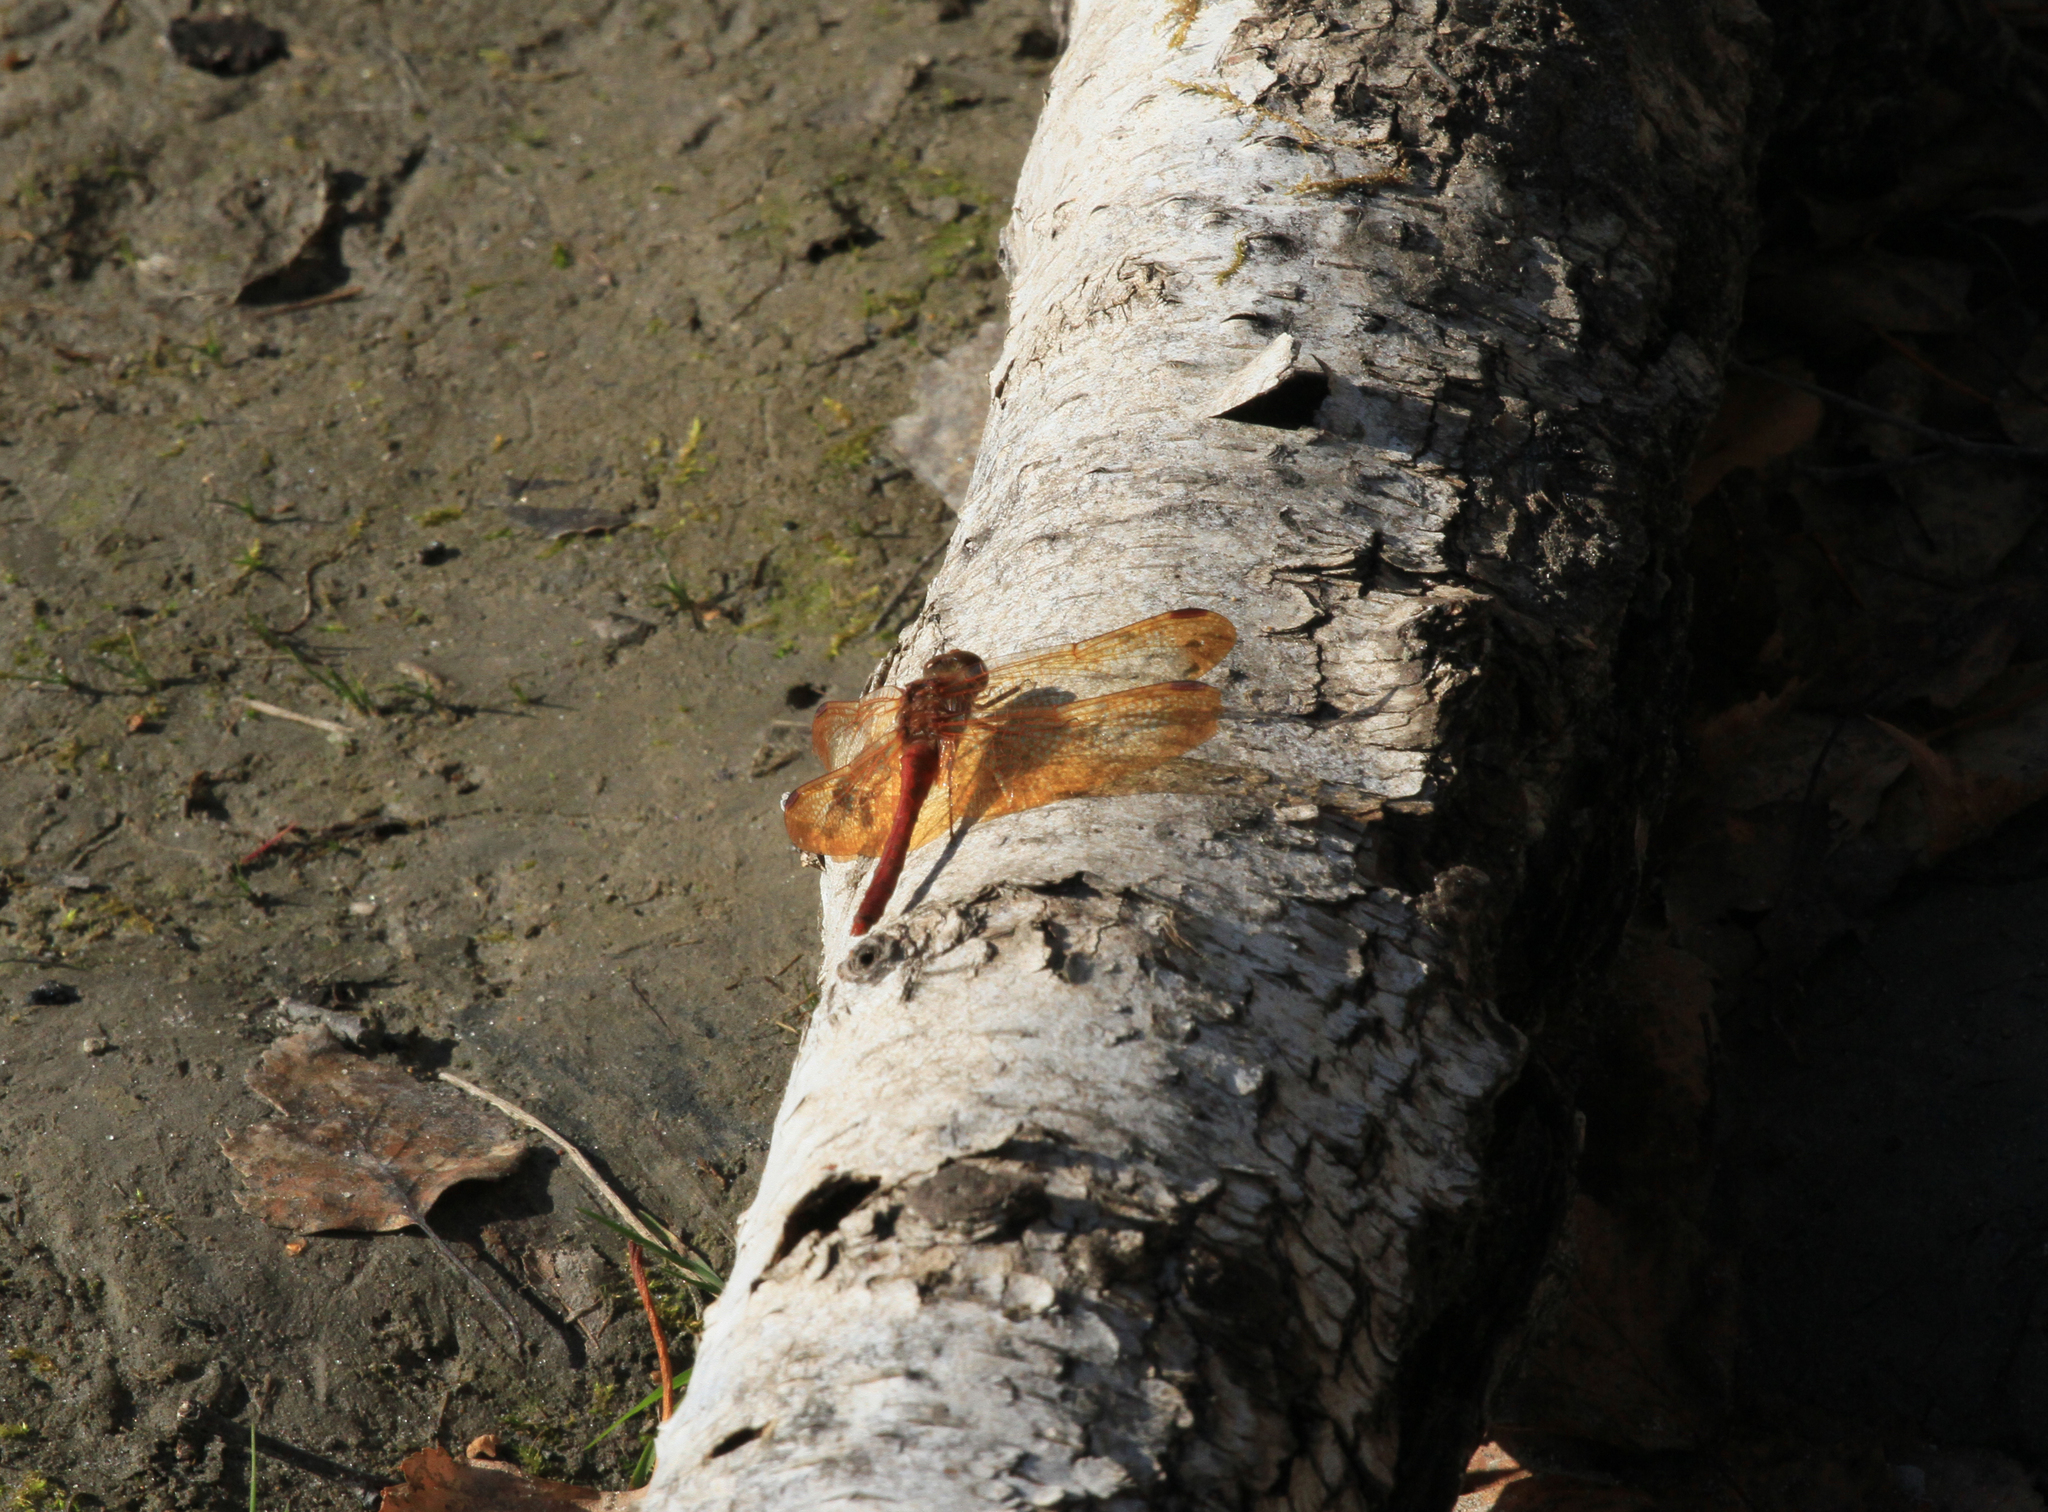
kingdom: Animalia
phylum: Arthropoda
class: Insecta
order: Odonata
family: Libellulidae
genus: Sympetrum
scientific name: Sympetrum croceolum
